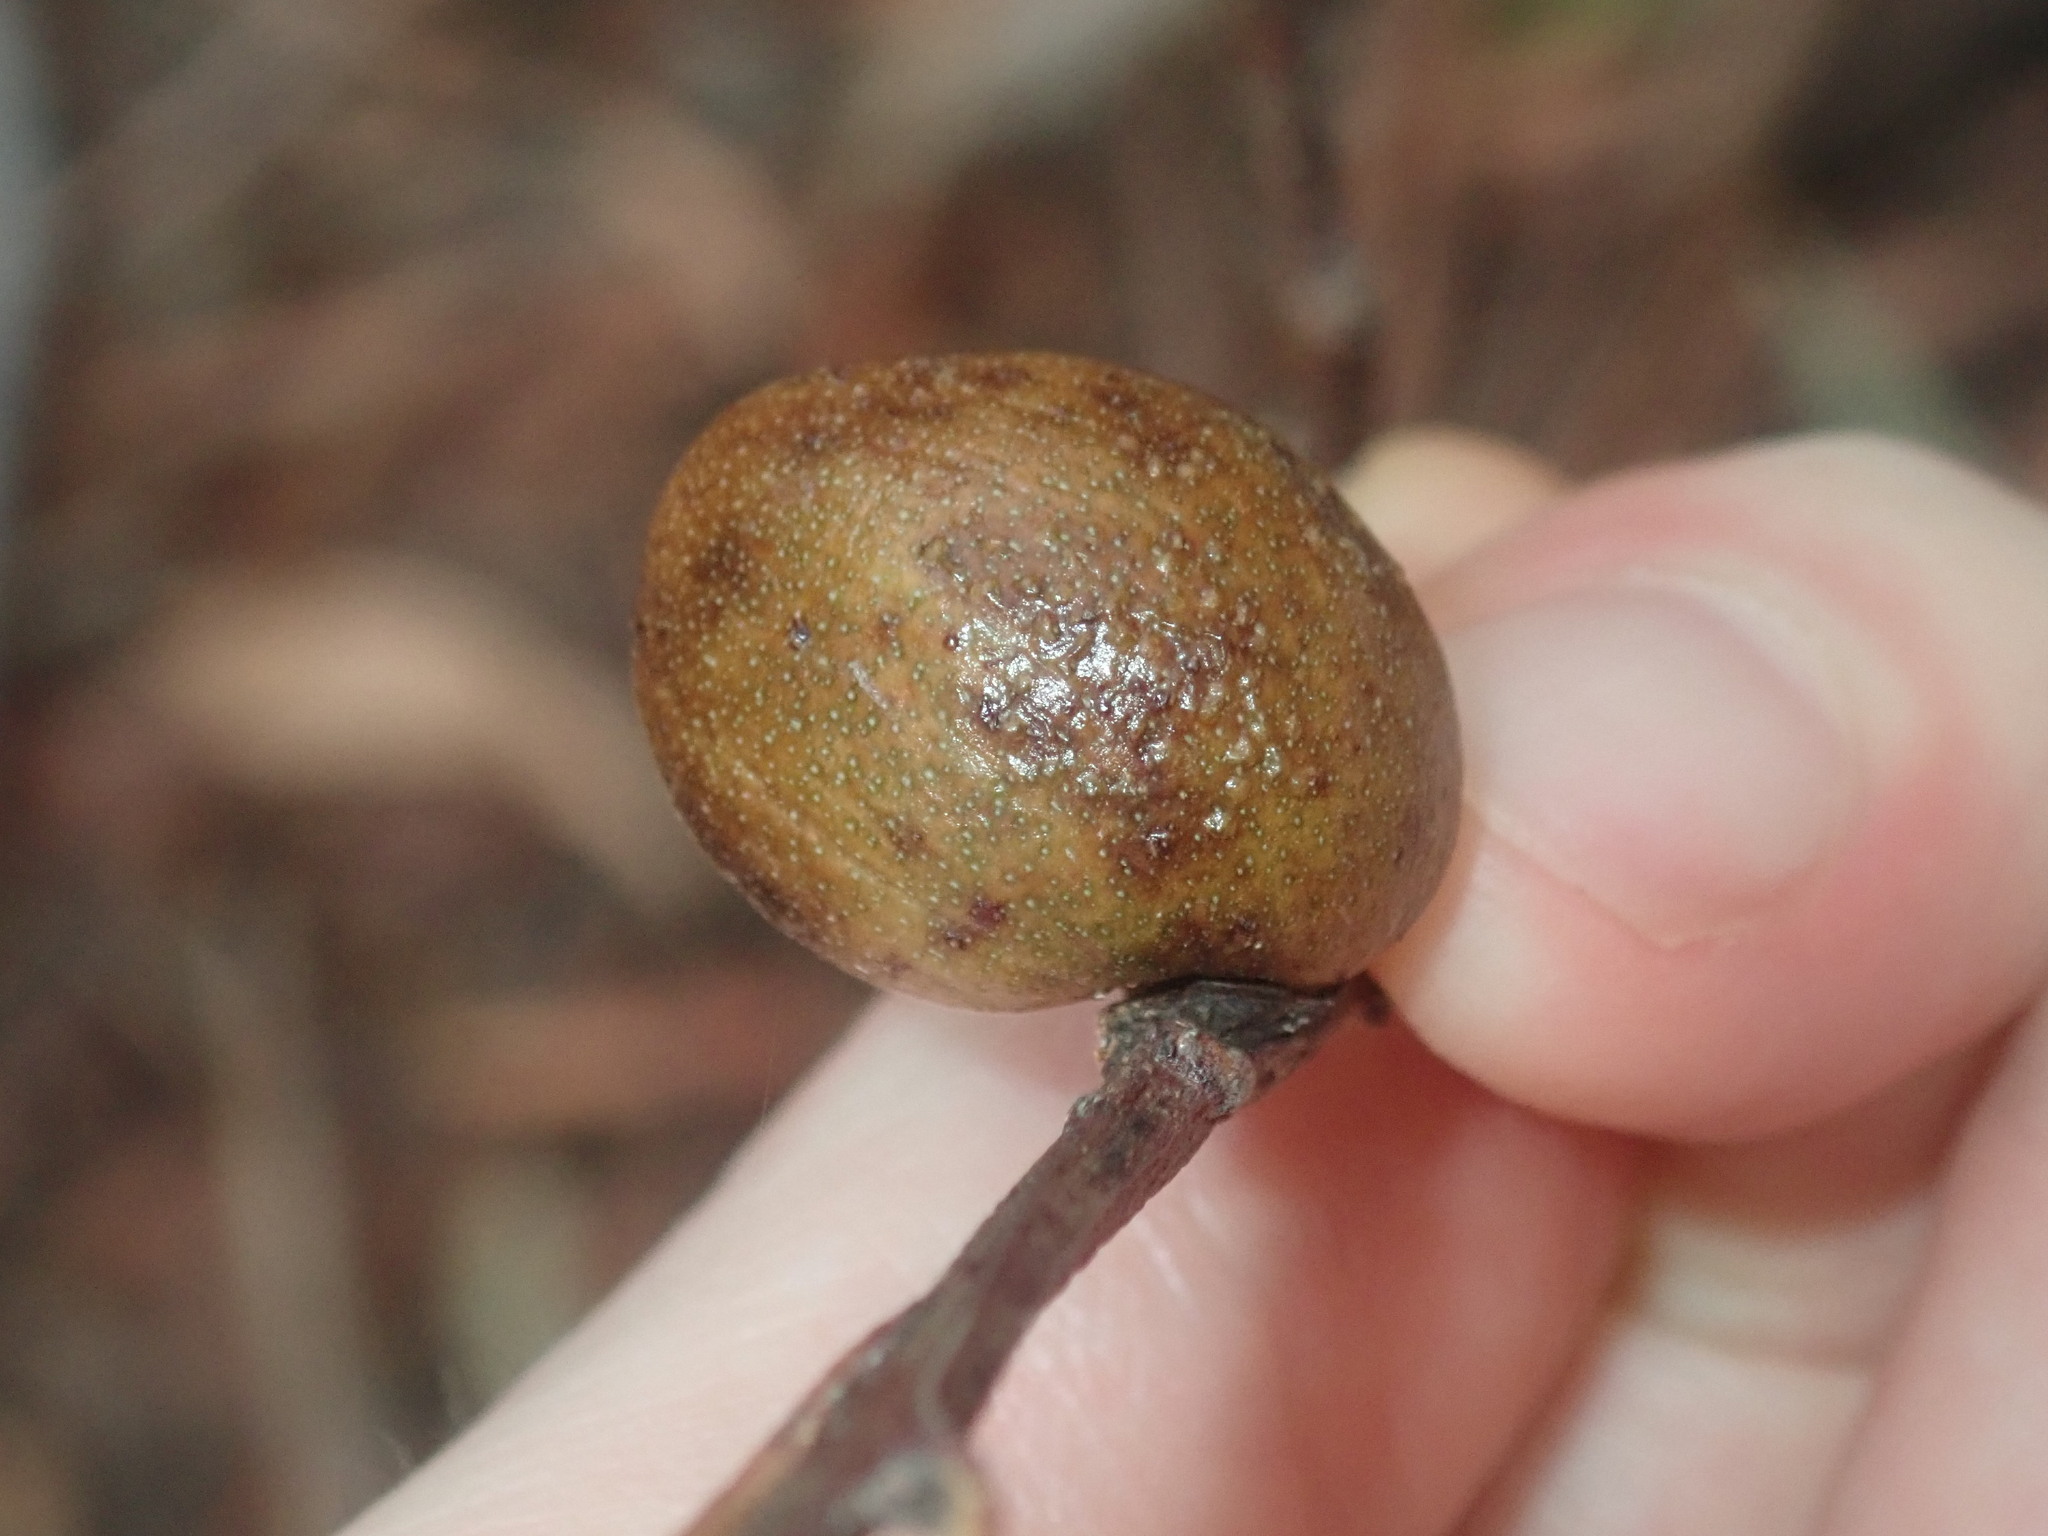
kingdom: Animalia
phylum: Arthropoda
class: Insecta
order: Hemiptera
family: Eriococcidae
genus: Apiomorpha
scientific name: Apiomorpha ovicola
